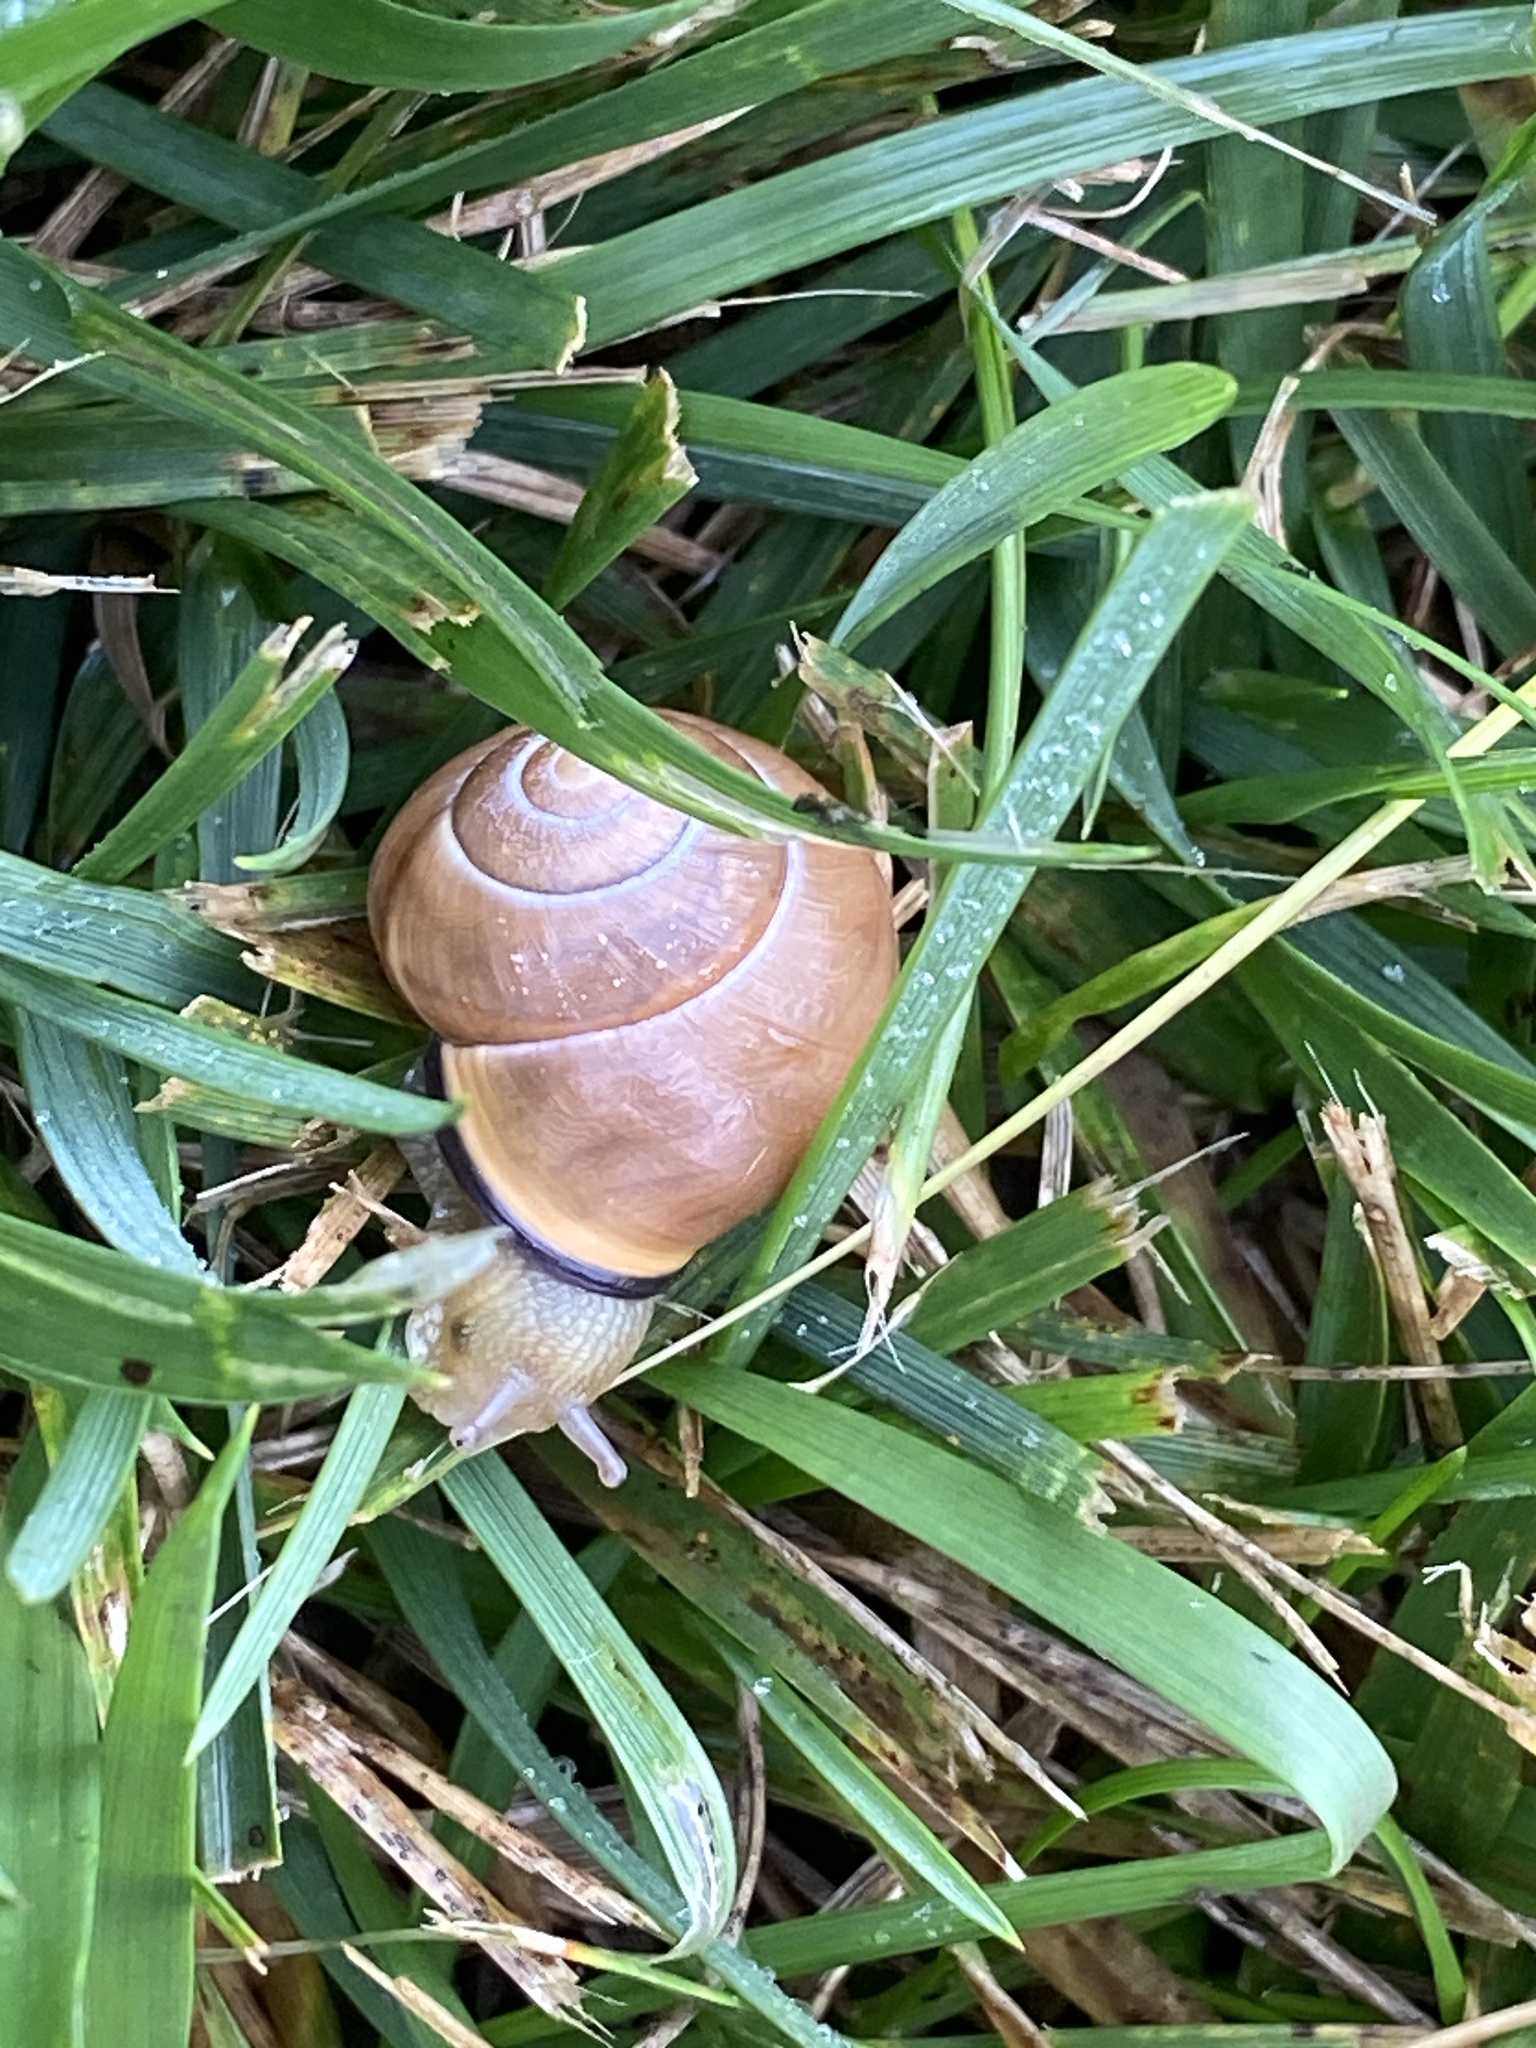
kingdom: Animalia
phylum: Mollusca
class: Gastropoda
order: Stylommatophora
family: Helicidae
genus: Cepaea
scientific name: Cepaea nemoralis
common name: Grovesnail
